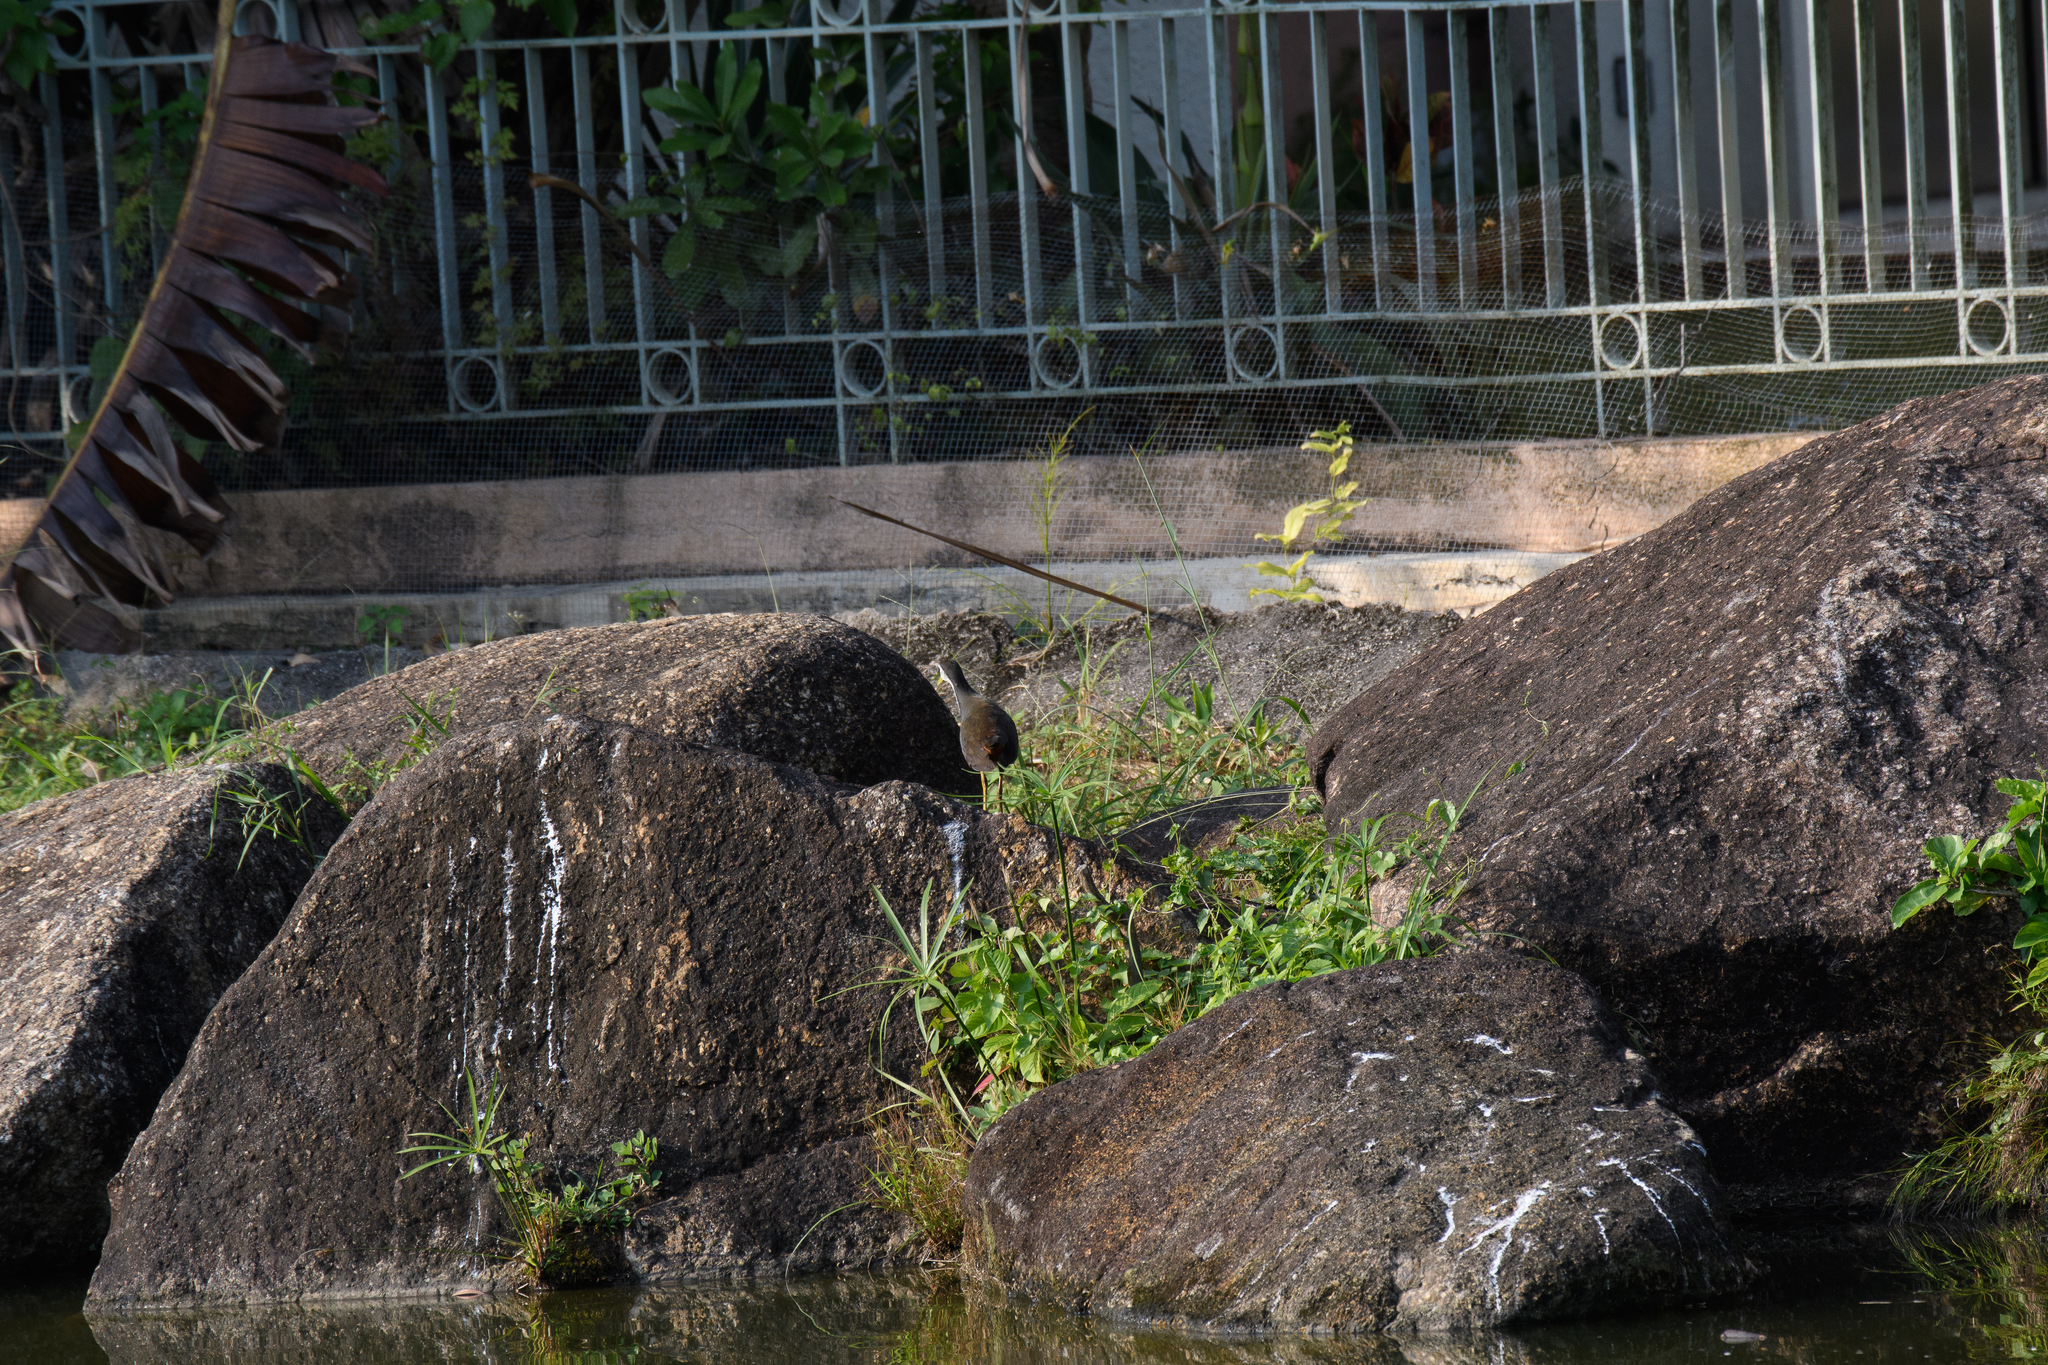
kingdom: Animalia
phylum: Chordata
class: Aves
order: Gruiformes
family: Rallidae
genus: Amaurornis
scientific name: Amaurornis phoenicurus
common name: White-breasted waterhen
